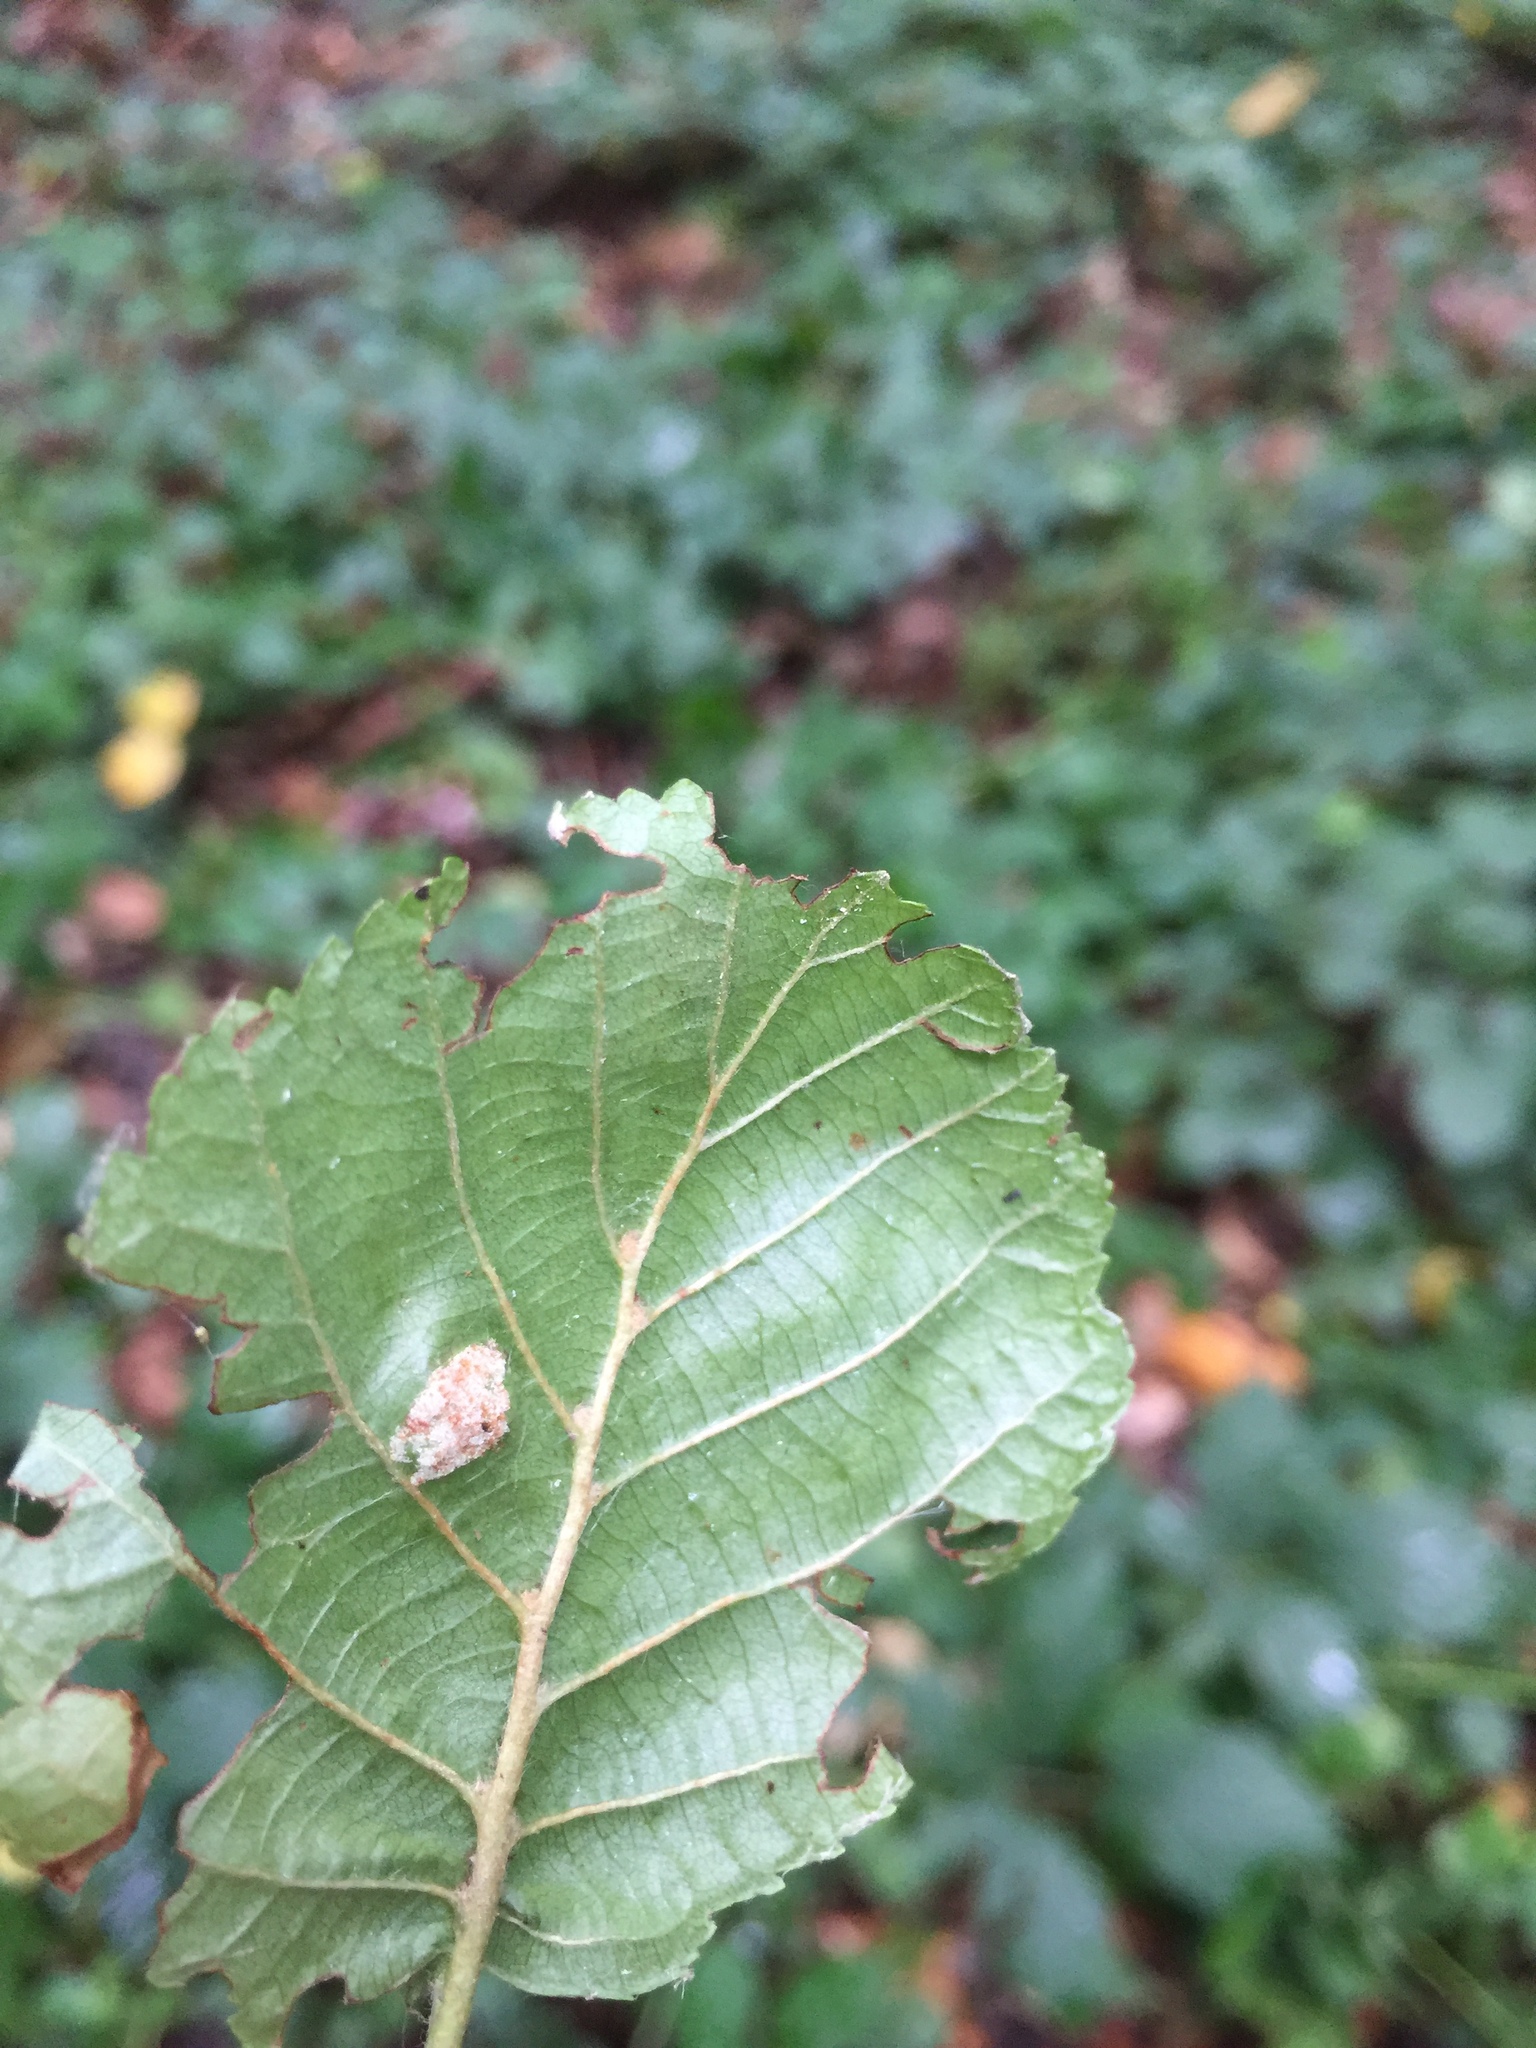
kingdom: Animalia
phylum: Arthropoda
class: Arachnida
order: Trombidiformes
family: Eriophyidae
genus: Acalitus
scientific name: Acalitus brevitarsus
